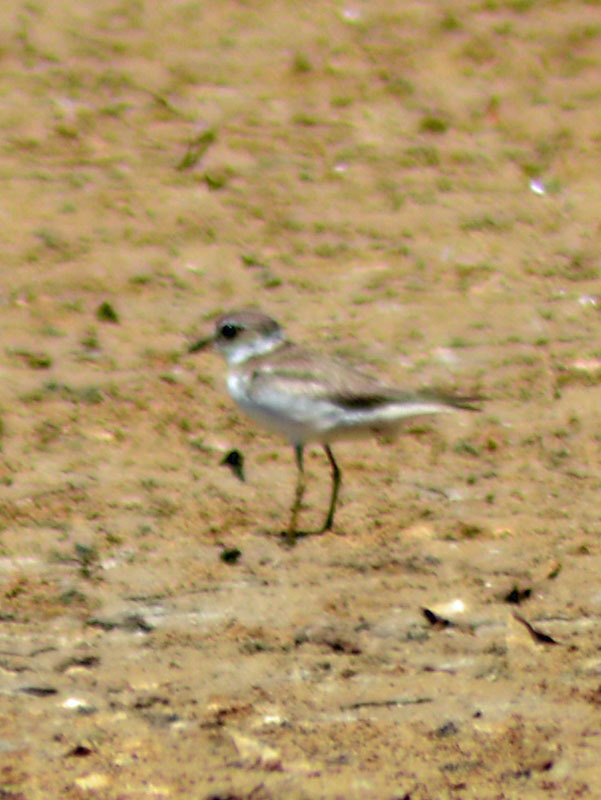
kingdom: Animalia
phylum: Chordata
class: Aves
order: Charadriiformes
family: Charadriidae
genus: Charadrius
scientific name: Charadrius semipalmatus
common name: Semipalmated plover
